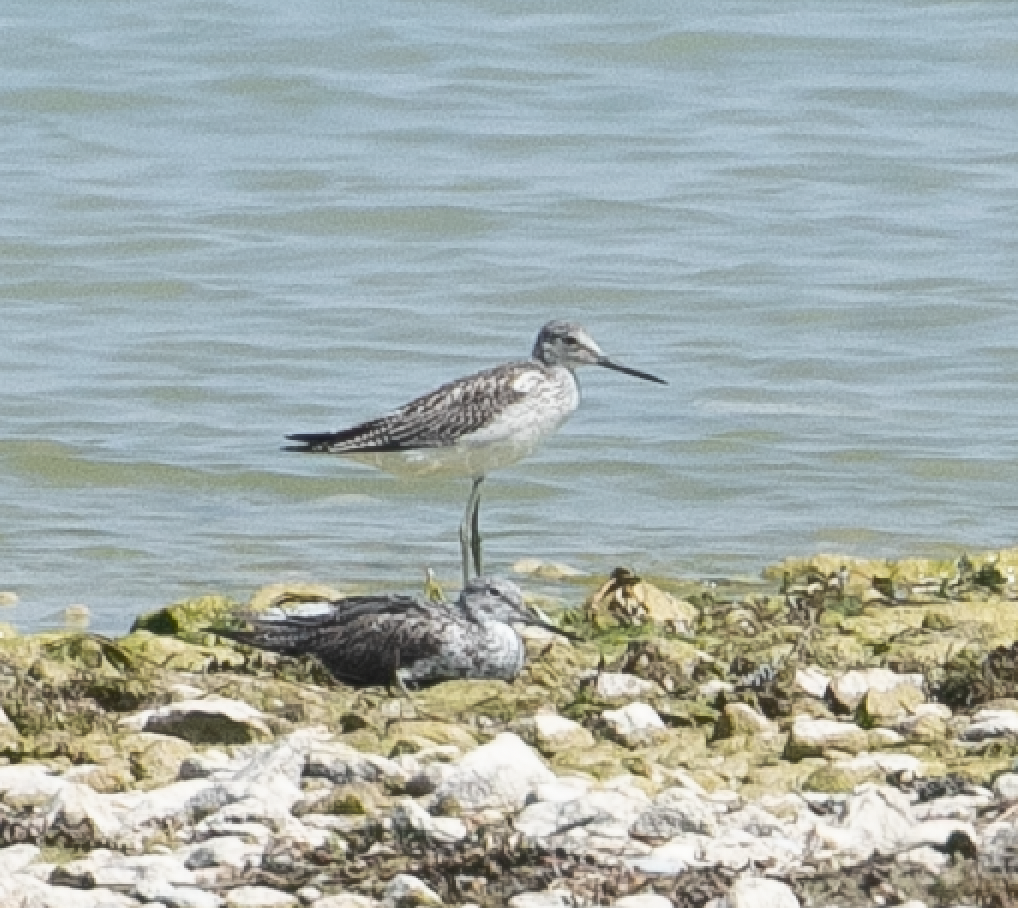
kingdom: Animalia
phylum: Chordata
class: Aves
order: Charadriiformes
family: Scolopacidae
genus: Tringa
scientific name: Tringa nebularia
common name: Common greenshank
